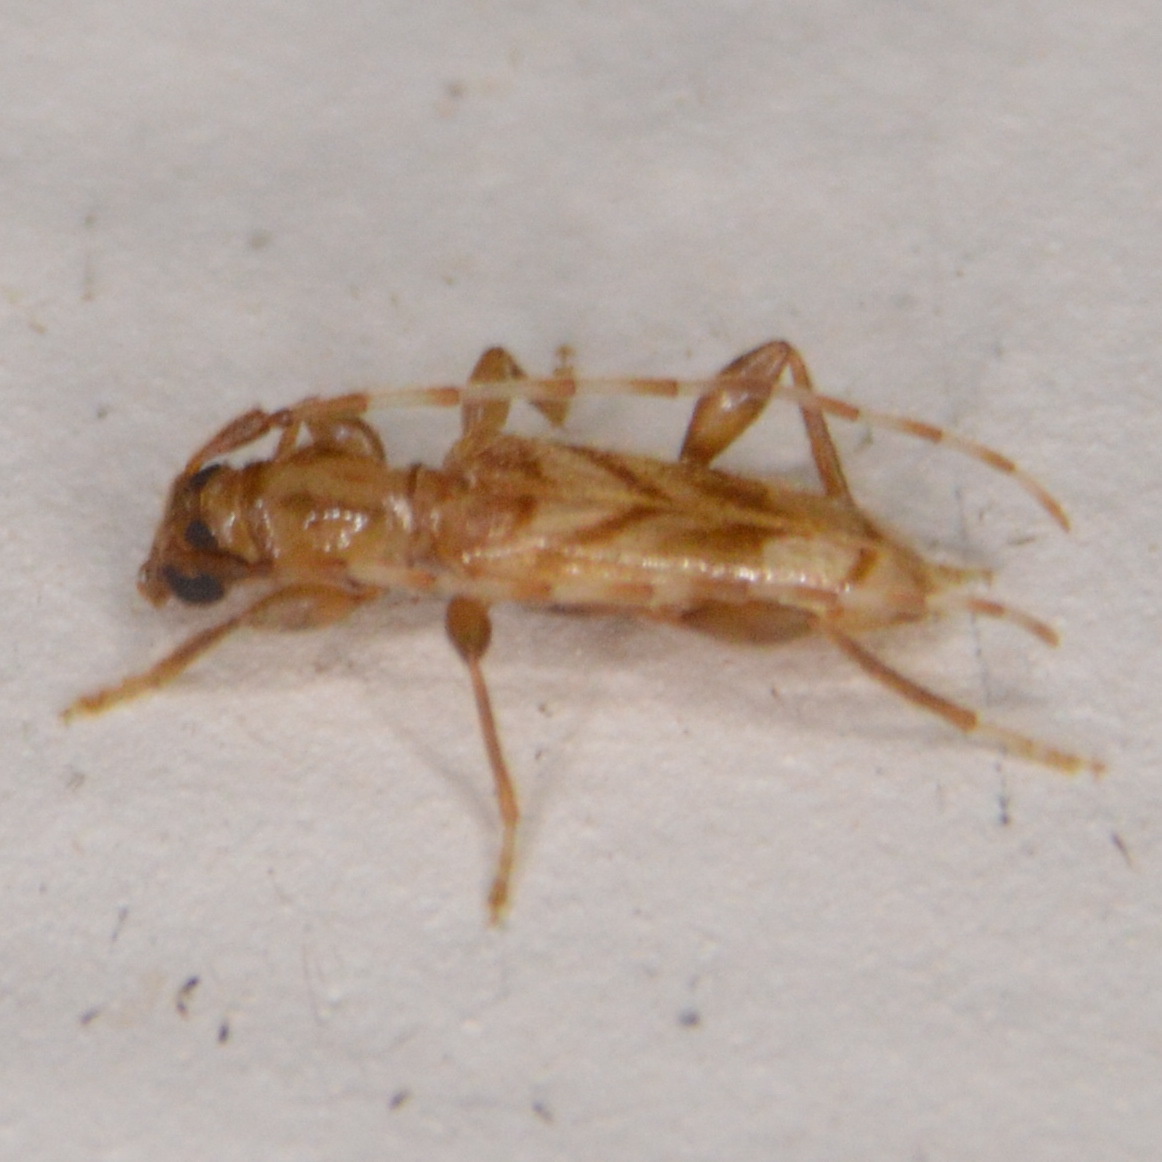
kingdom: Animalia
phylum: Arthropoda
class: Insecta
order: Coleoptera
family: Cerambycidae
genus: Obrium
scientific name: Obrium maculatum
